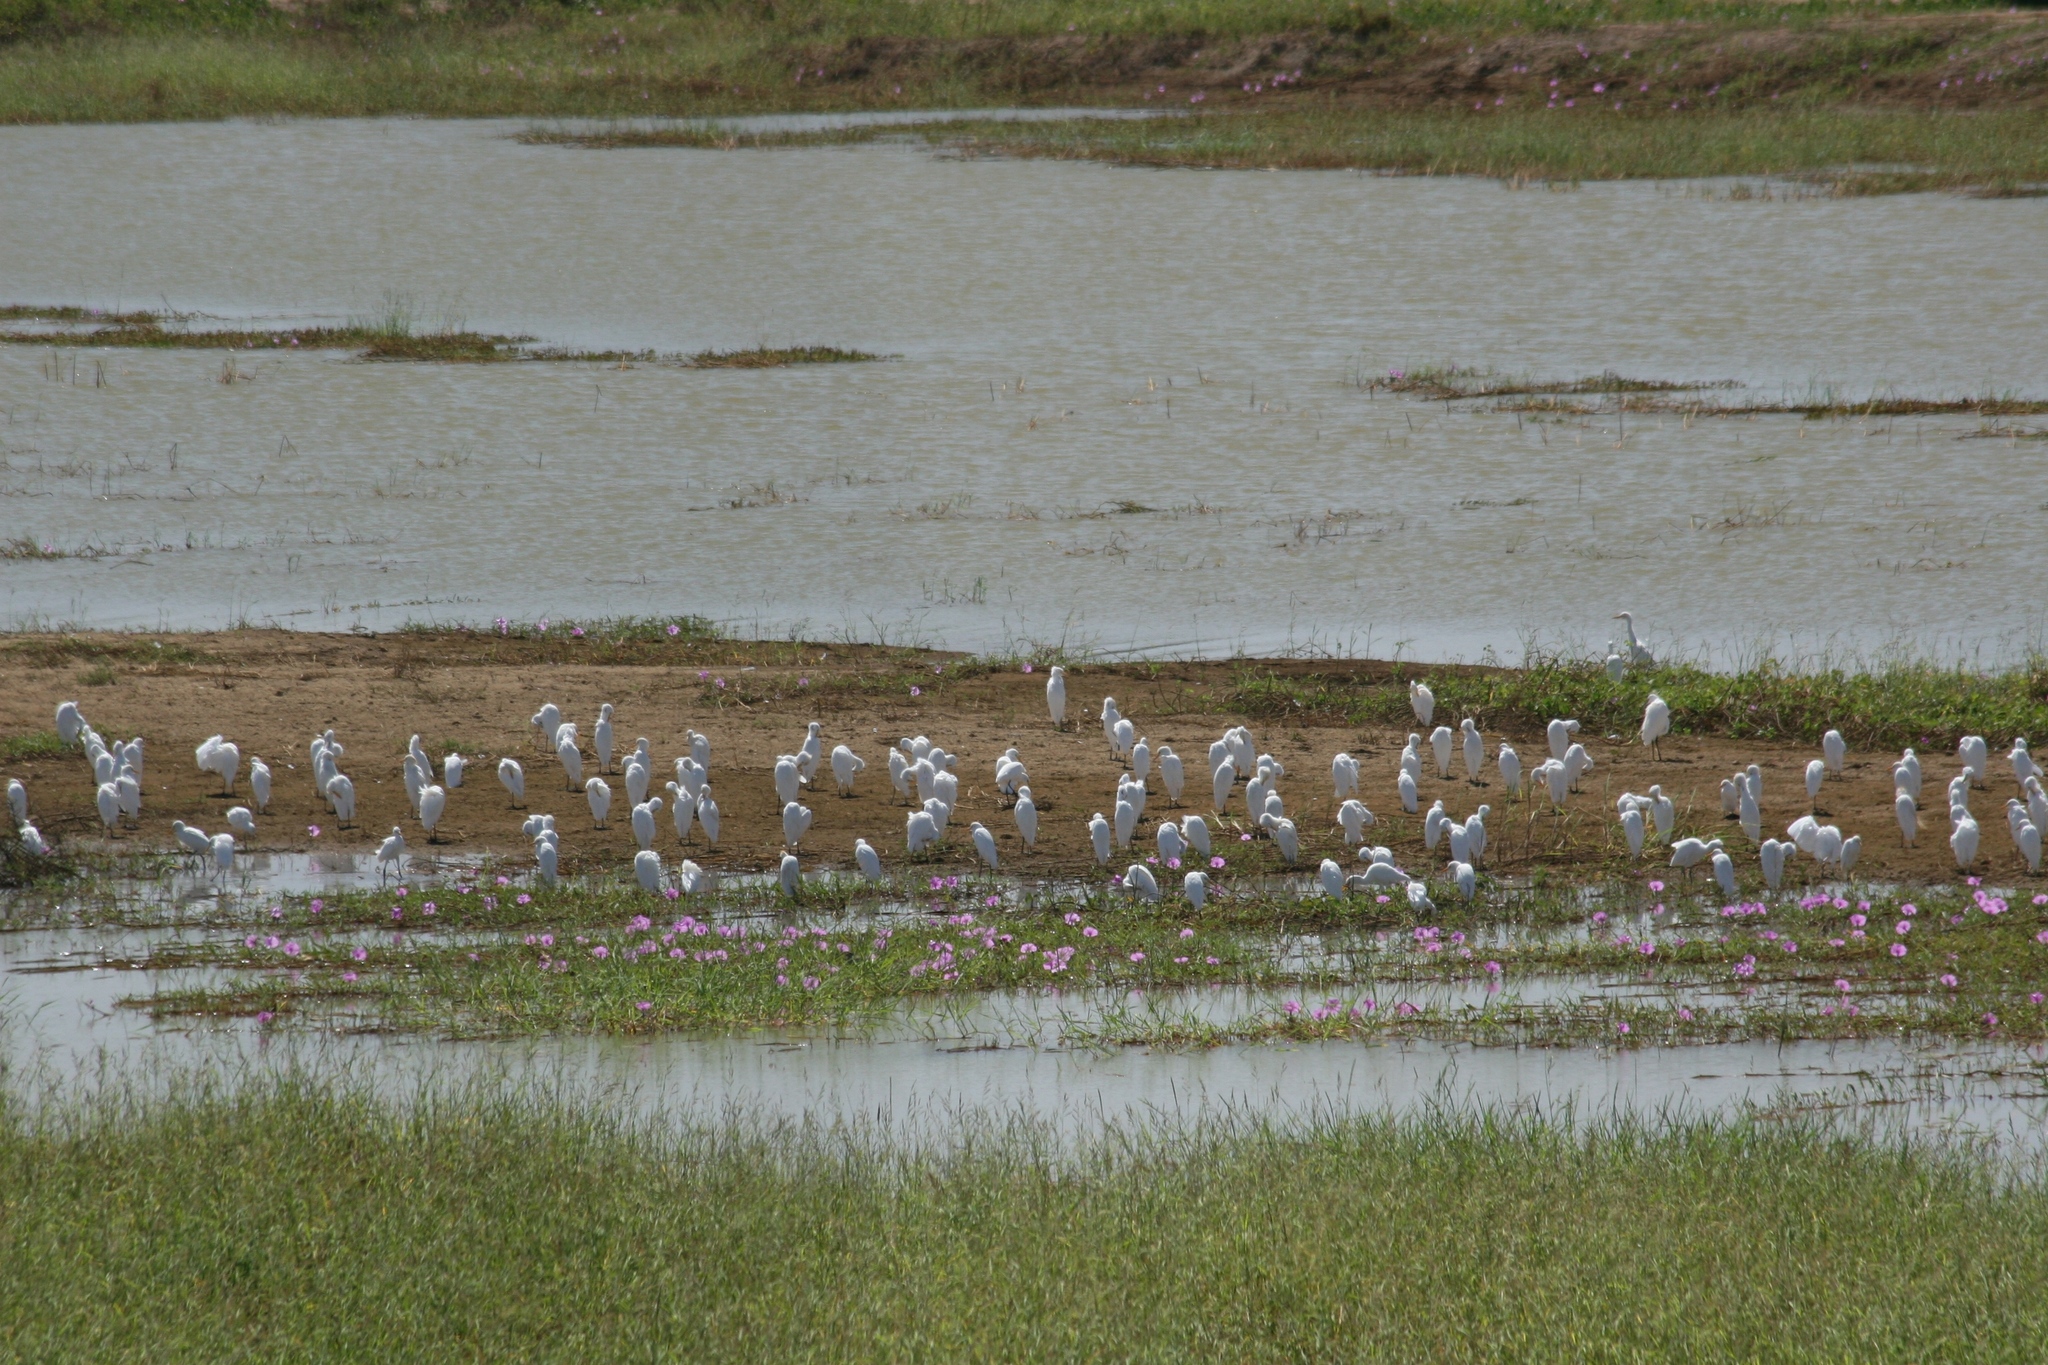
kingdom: Animalia
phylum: Chordata
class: Aves
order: Pelecaniformes
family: Ardeidae
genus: Bubulcus
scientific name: Bubulcus ibis
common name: Cattle egret
